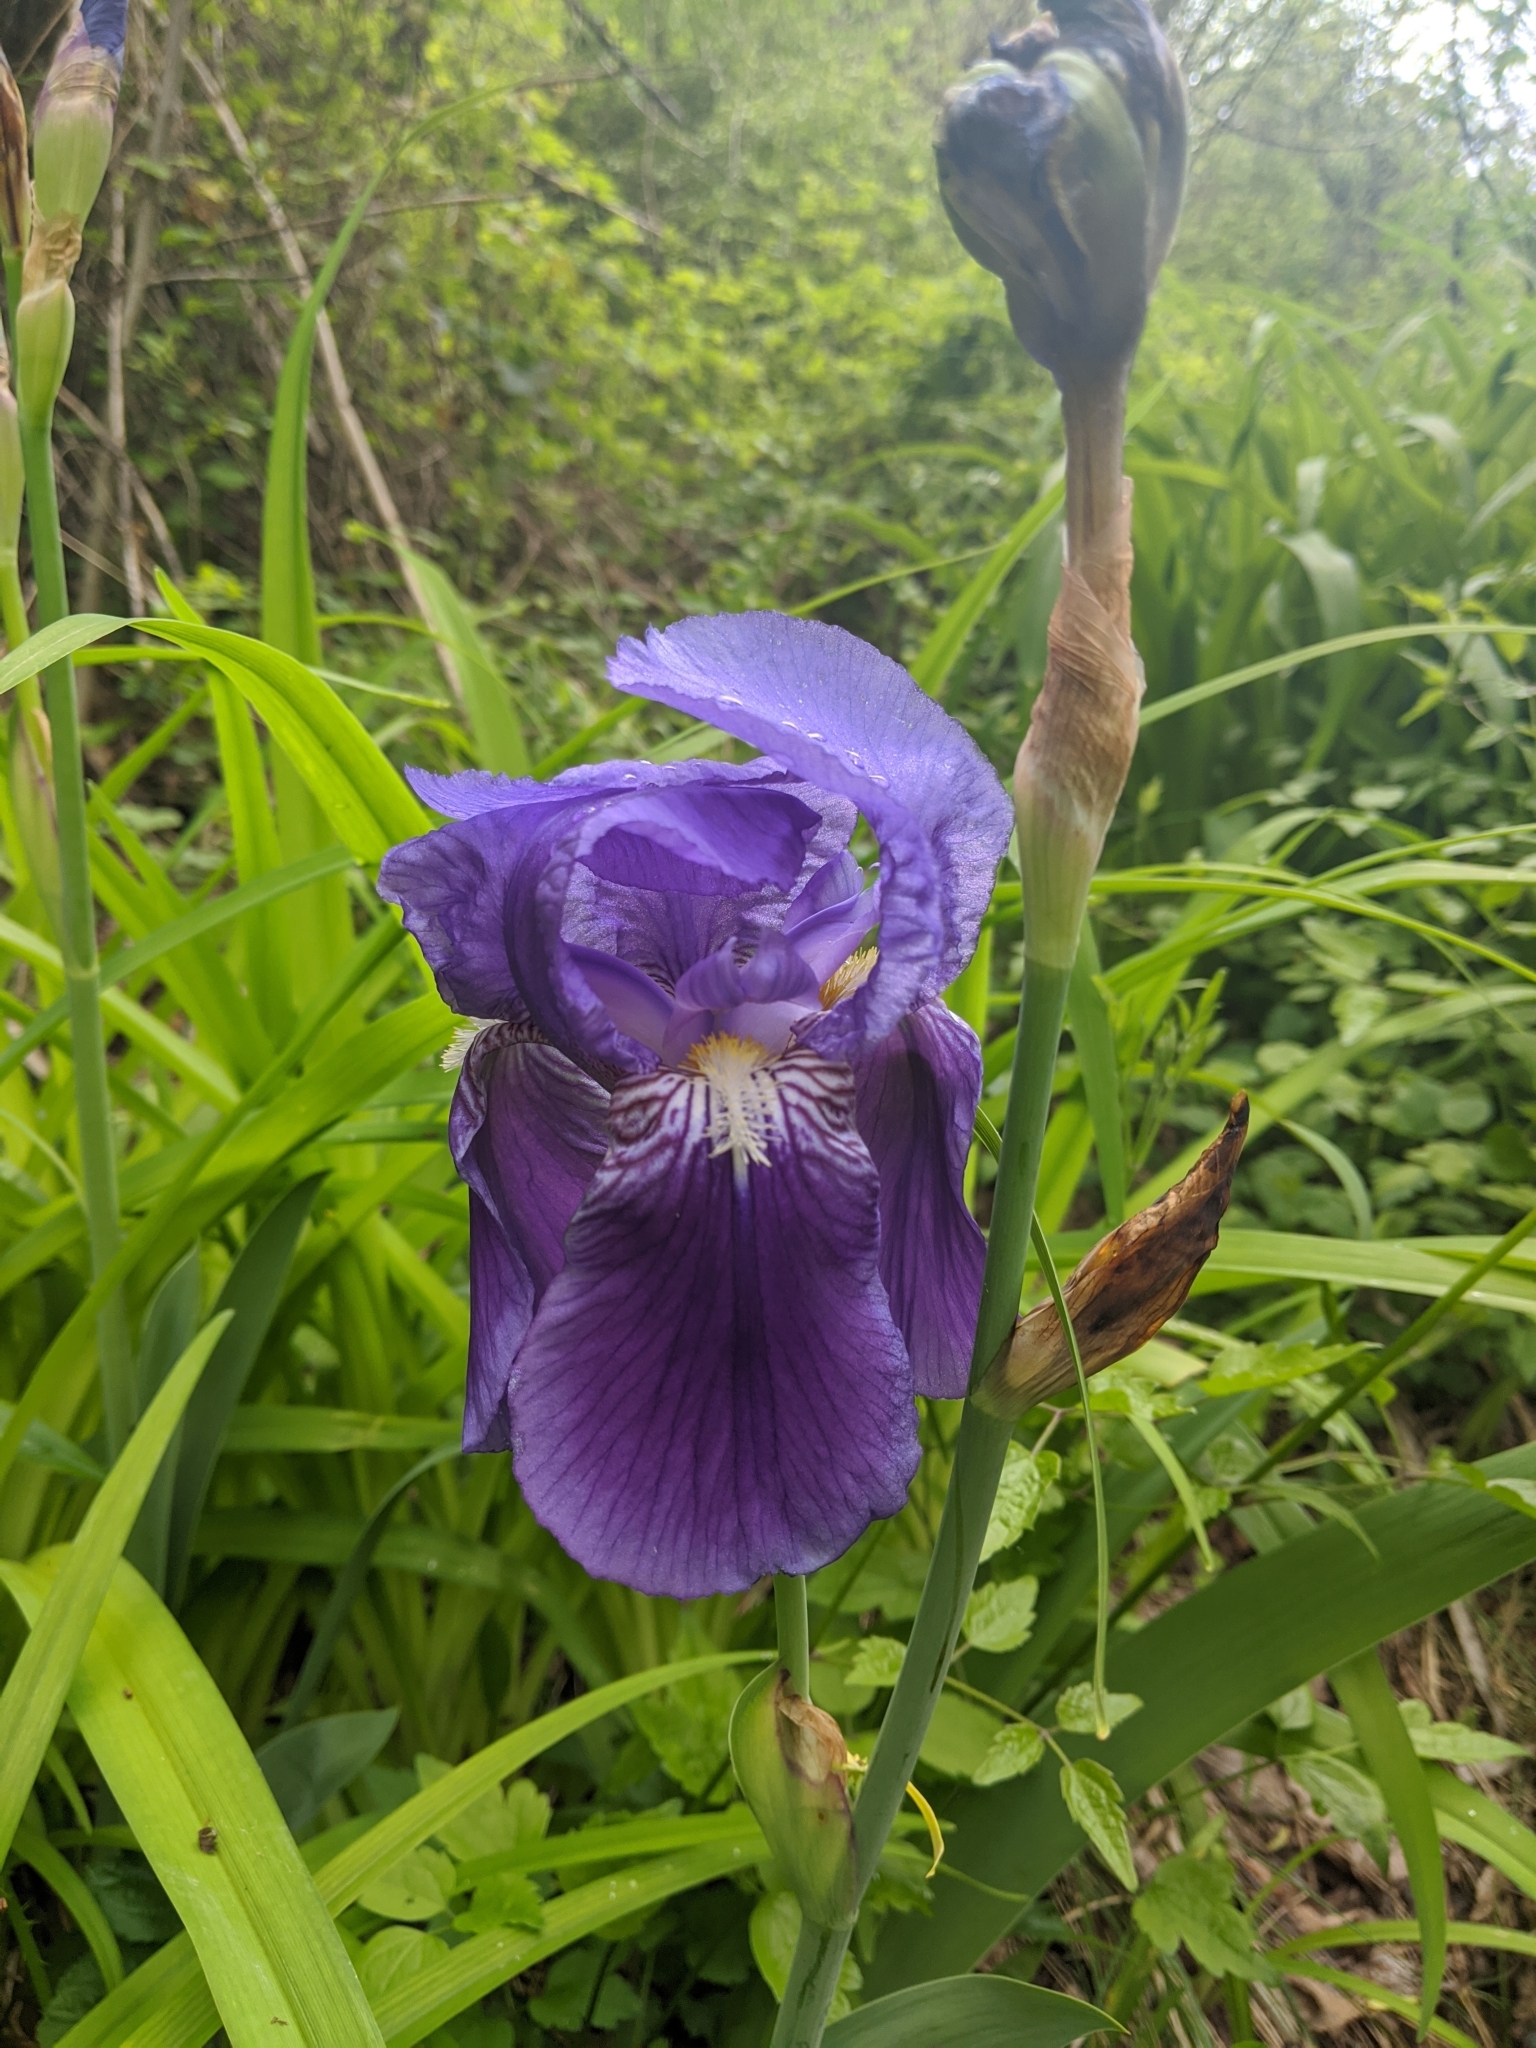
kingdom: Plantae
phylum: Tracheophyta
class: Liliopsida
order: Asparagales
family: Iridaceae
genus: Iris
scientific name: Iris germanica
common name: German iris
